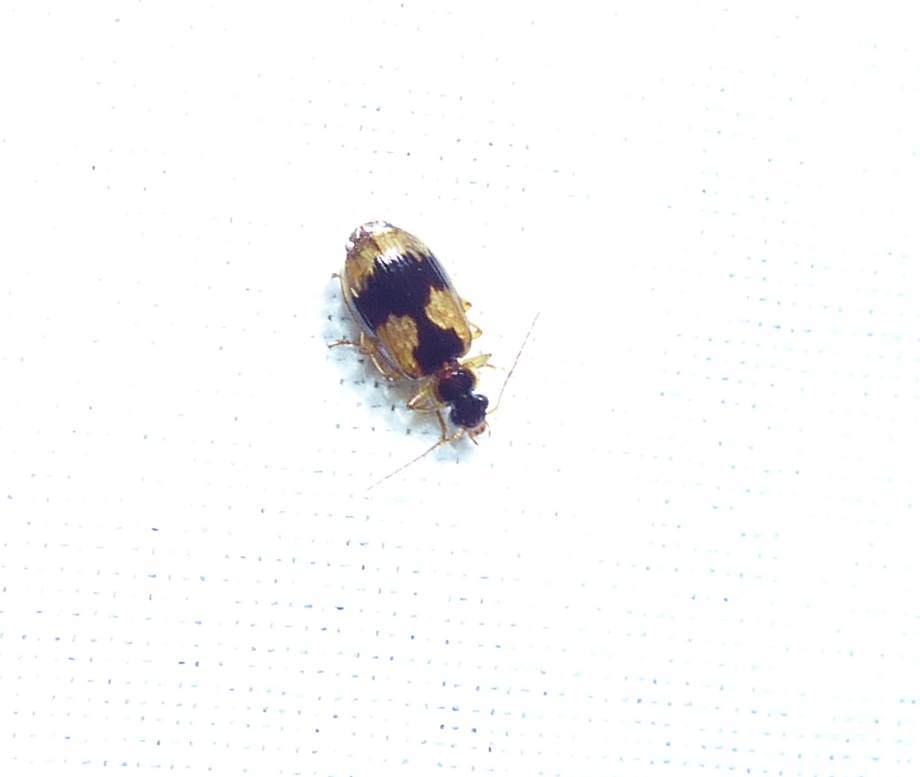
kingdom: Animalia
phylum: Arthropoda
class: Insecta
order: Coleoptera
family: Carabidae
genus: Lebia
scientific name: Lebia fuscata
